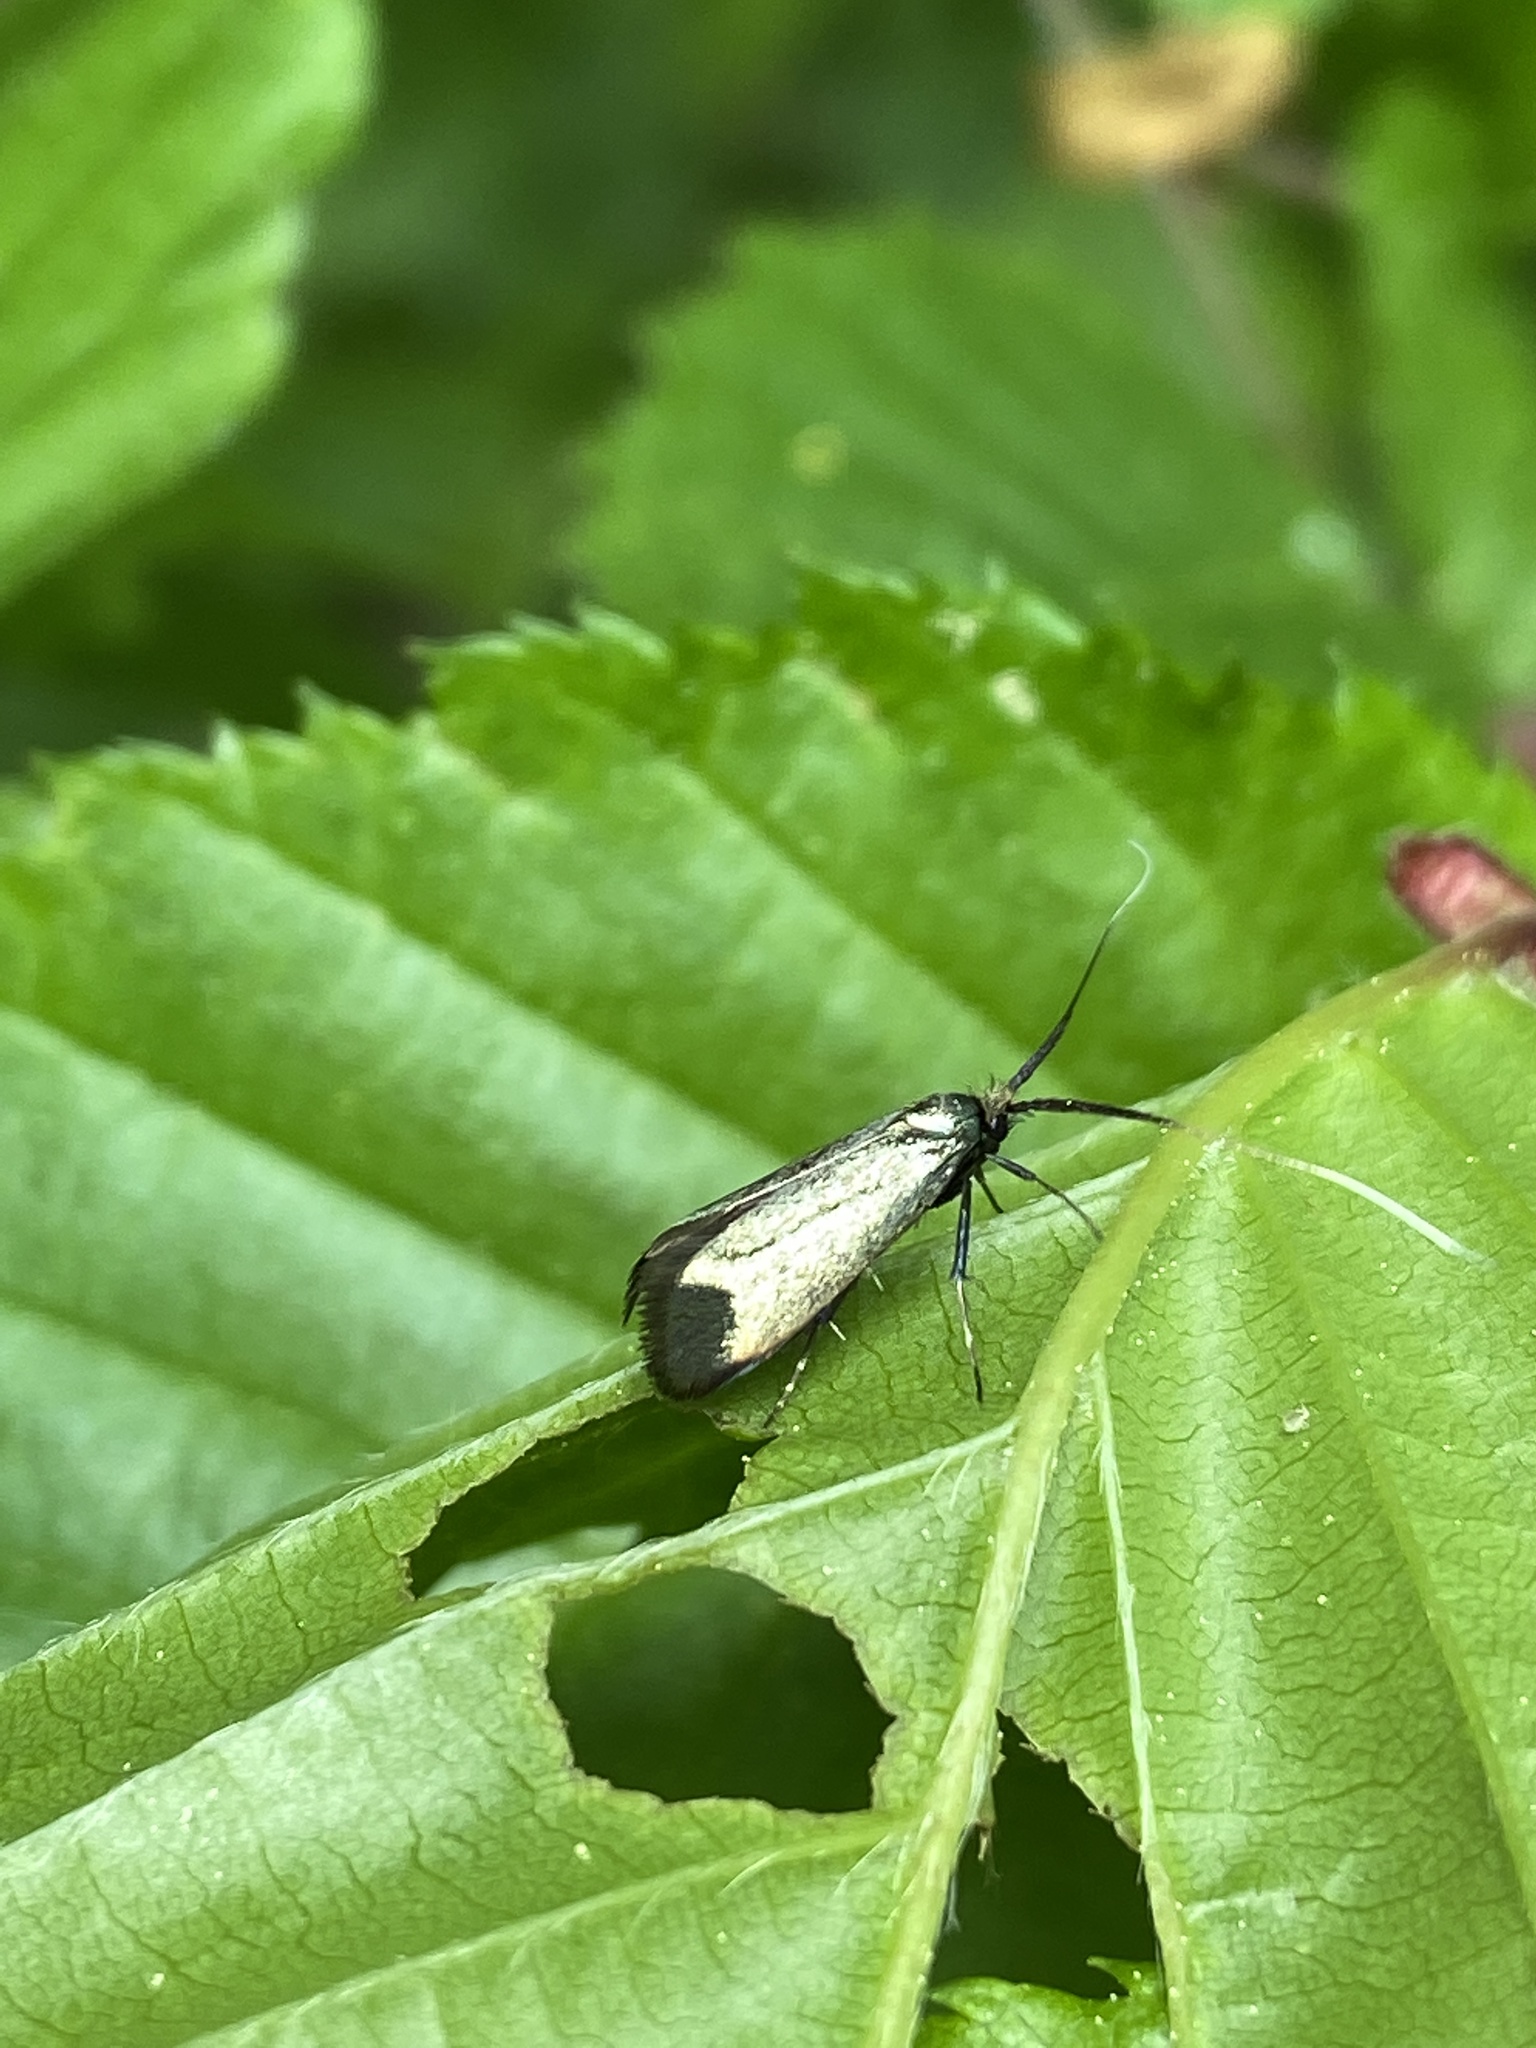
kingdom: Animalia
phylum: Arthropoda
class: Insecta
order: Lepidoptera
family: Adelidae
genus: Adela
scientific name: Adela viridella
